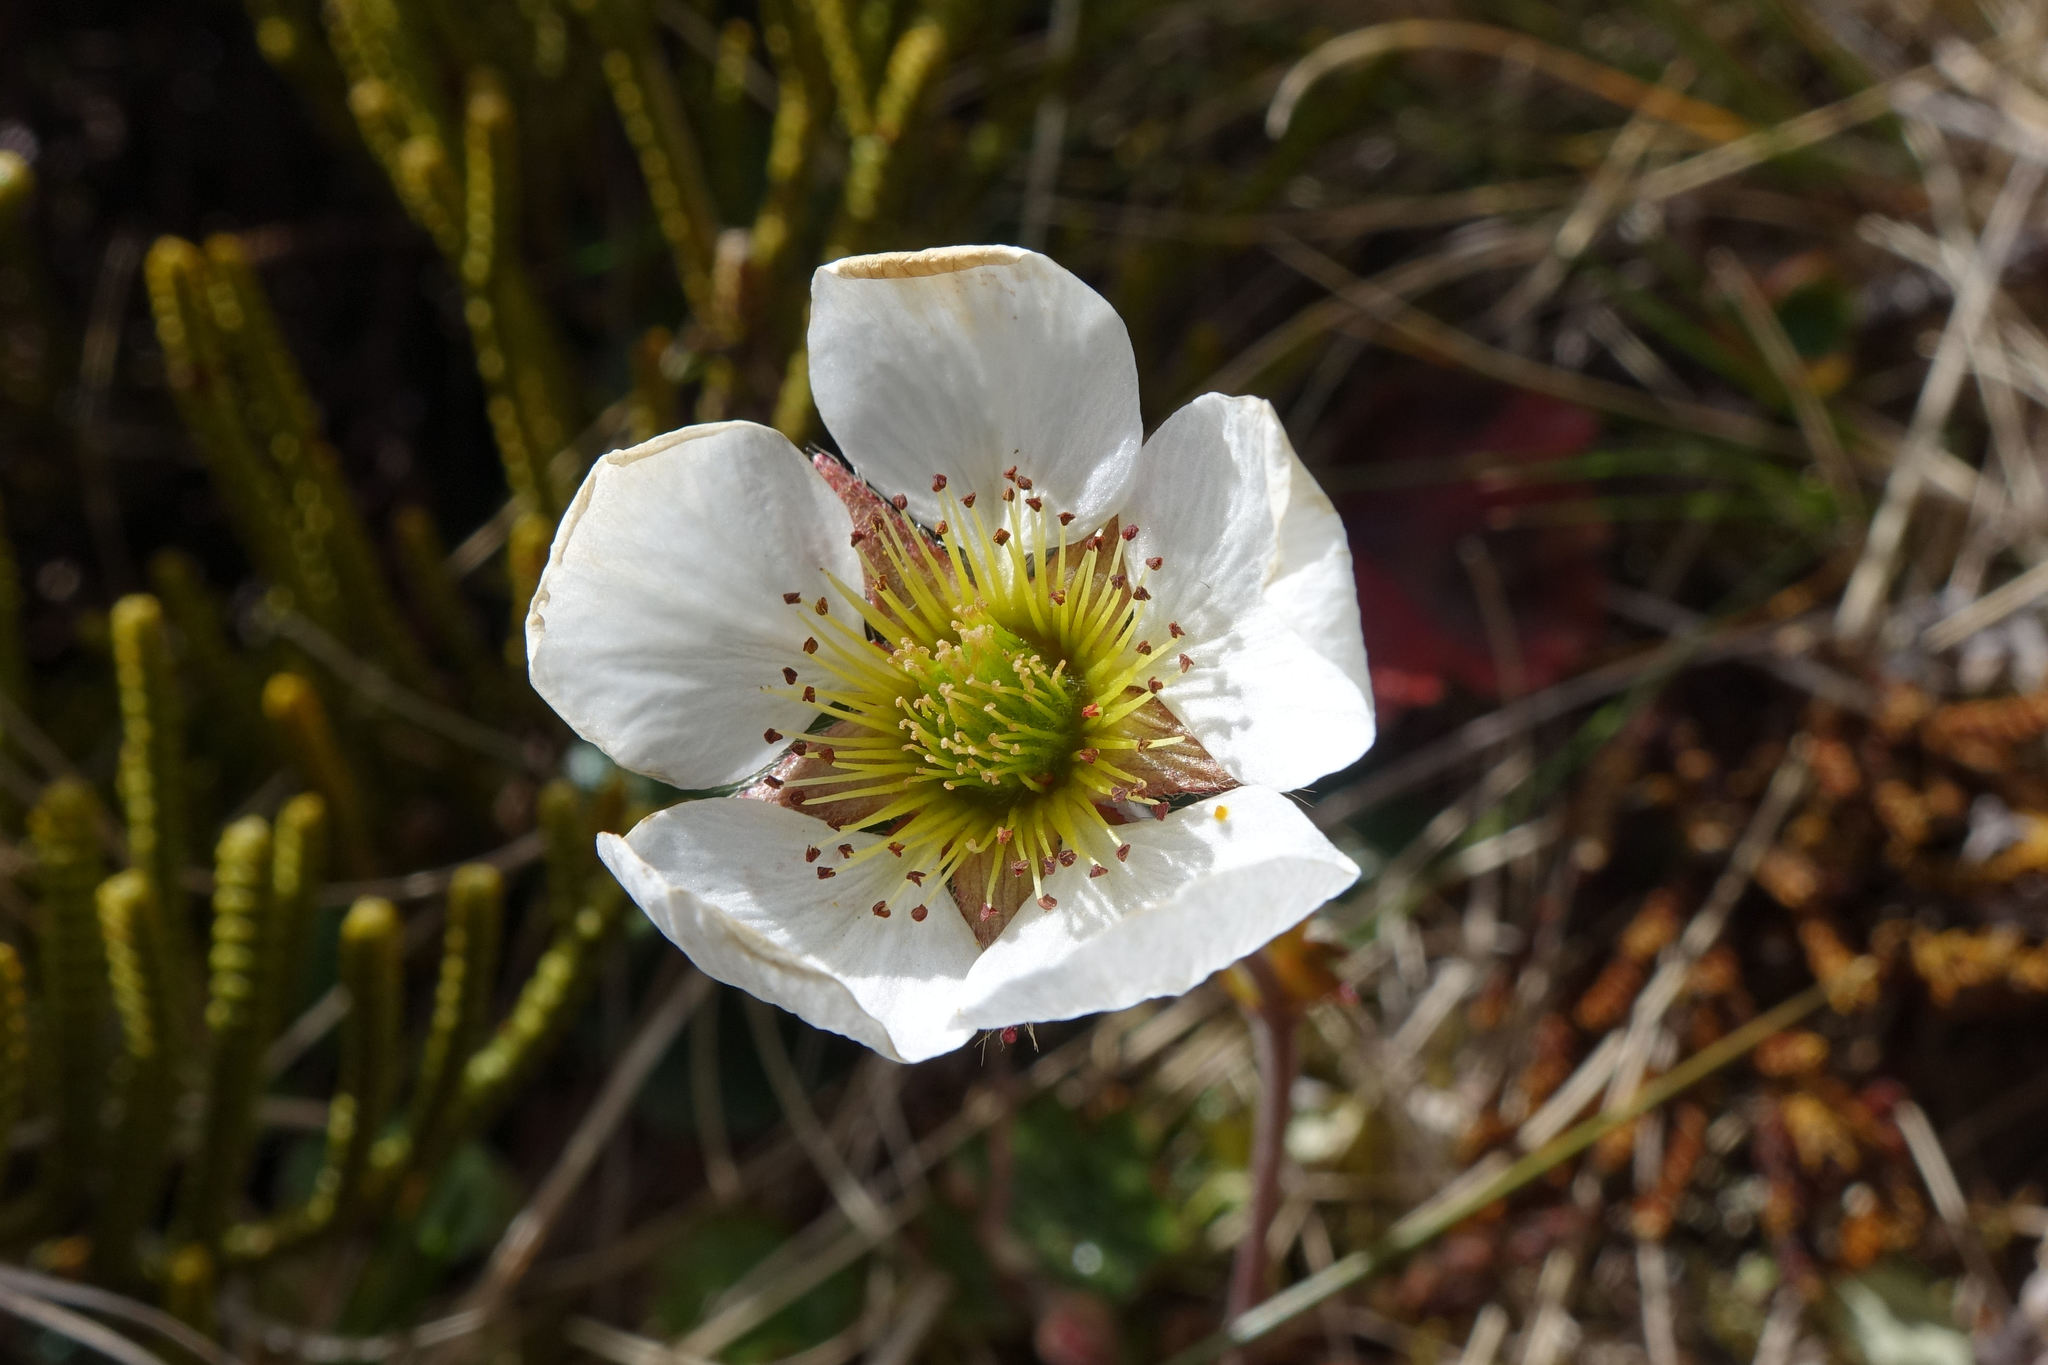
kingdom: Plantae
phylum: Tracheophyta
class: Magnoliopsida
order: Rosales
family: Rosaceae
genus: Geum
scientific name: Geum uniflorum
